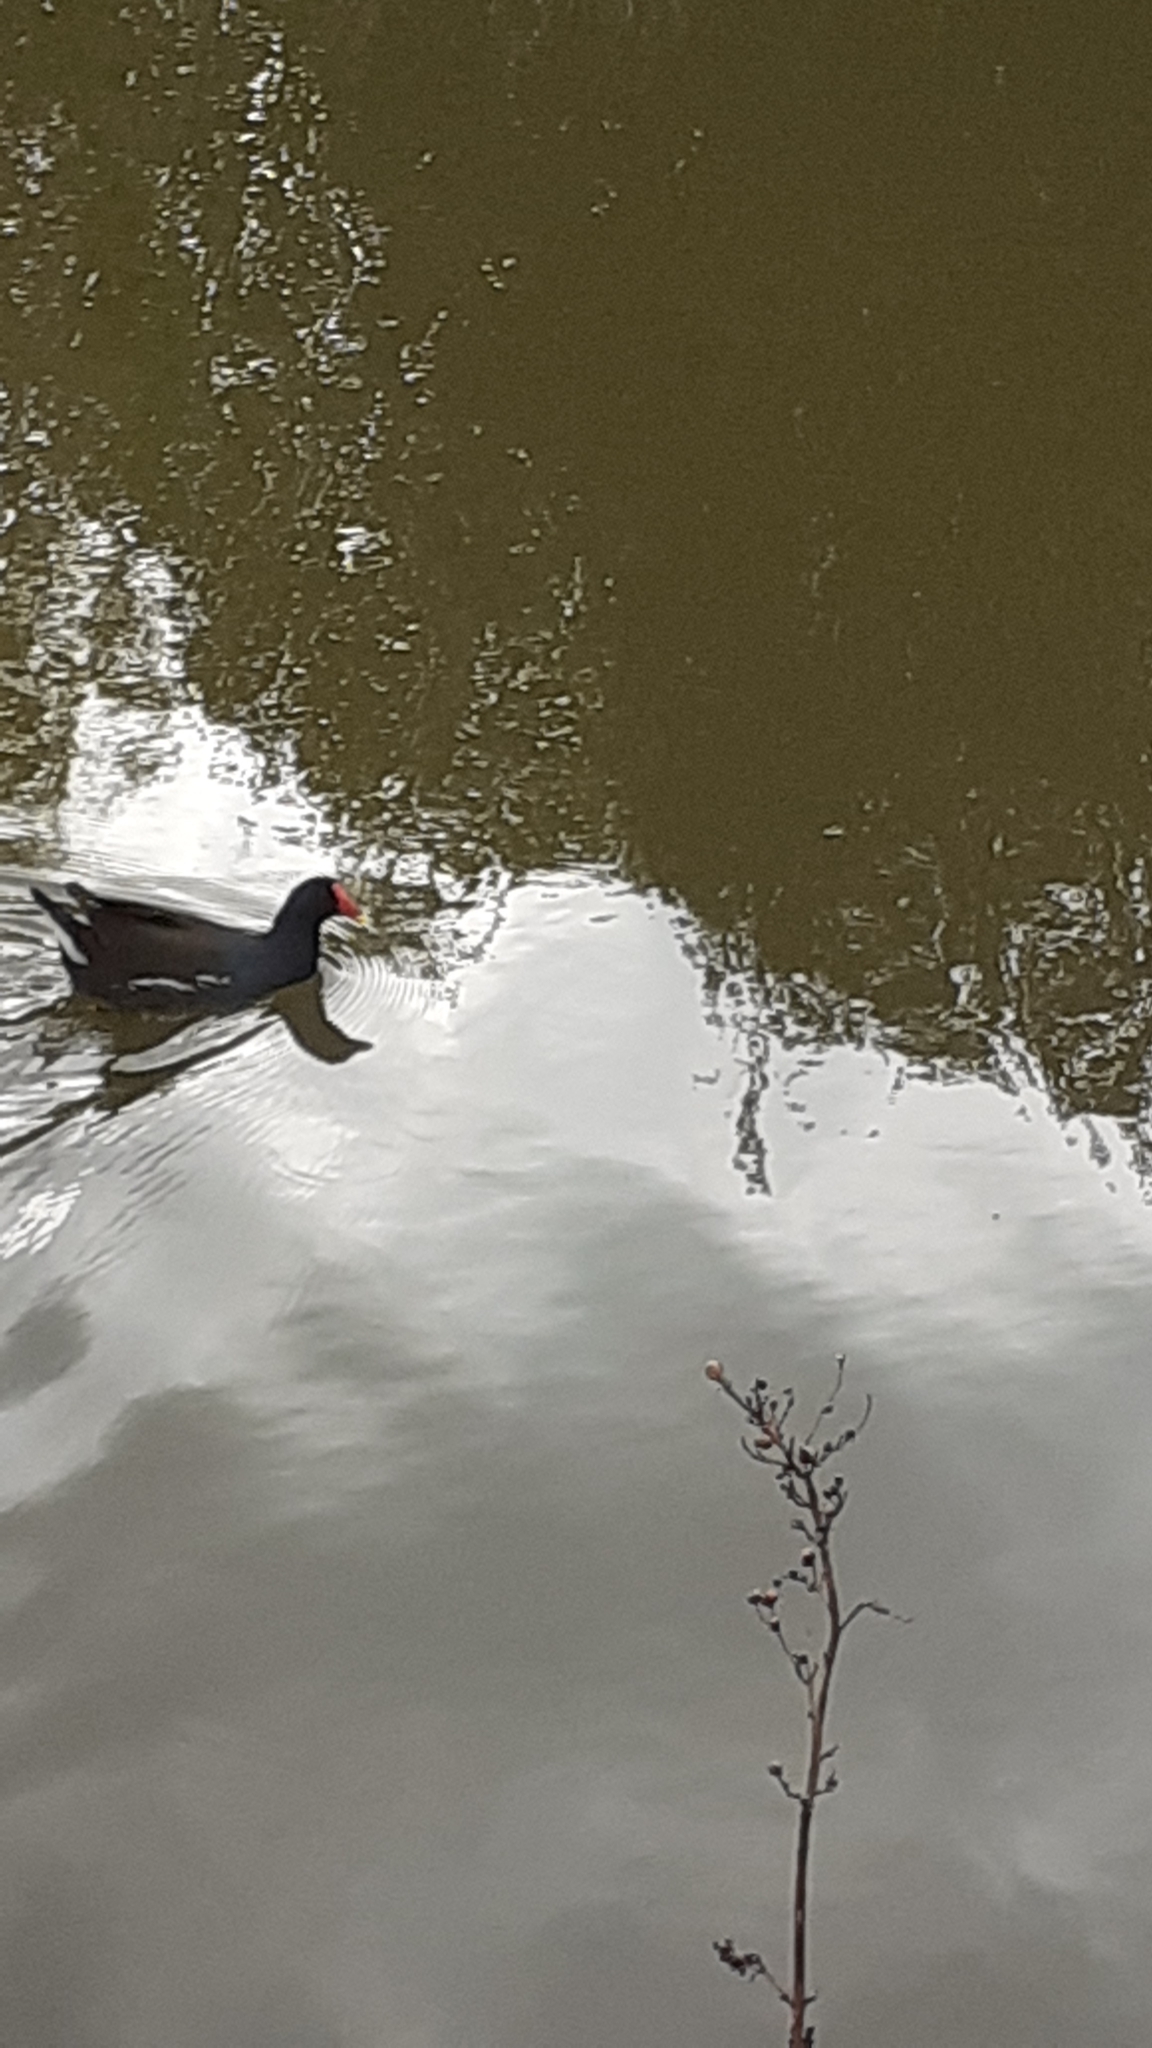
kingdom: Animalia
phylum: Chordata
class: Aves
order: Gruiformes
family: Rallidae
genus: Gallinula
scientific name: Gallinula chloropus
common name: Common moorhen
